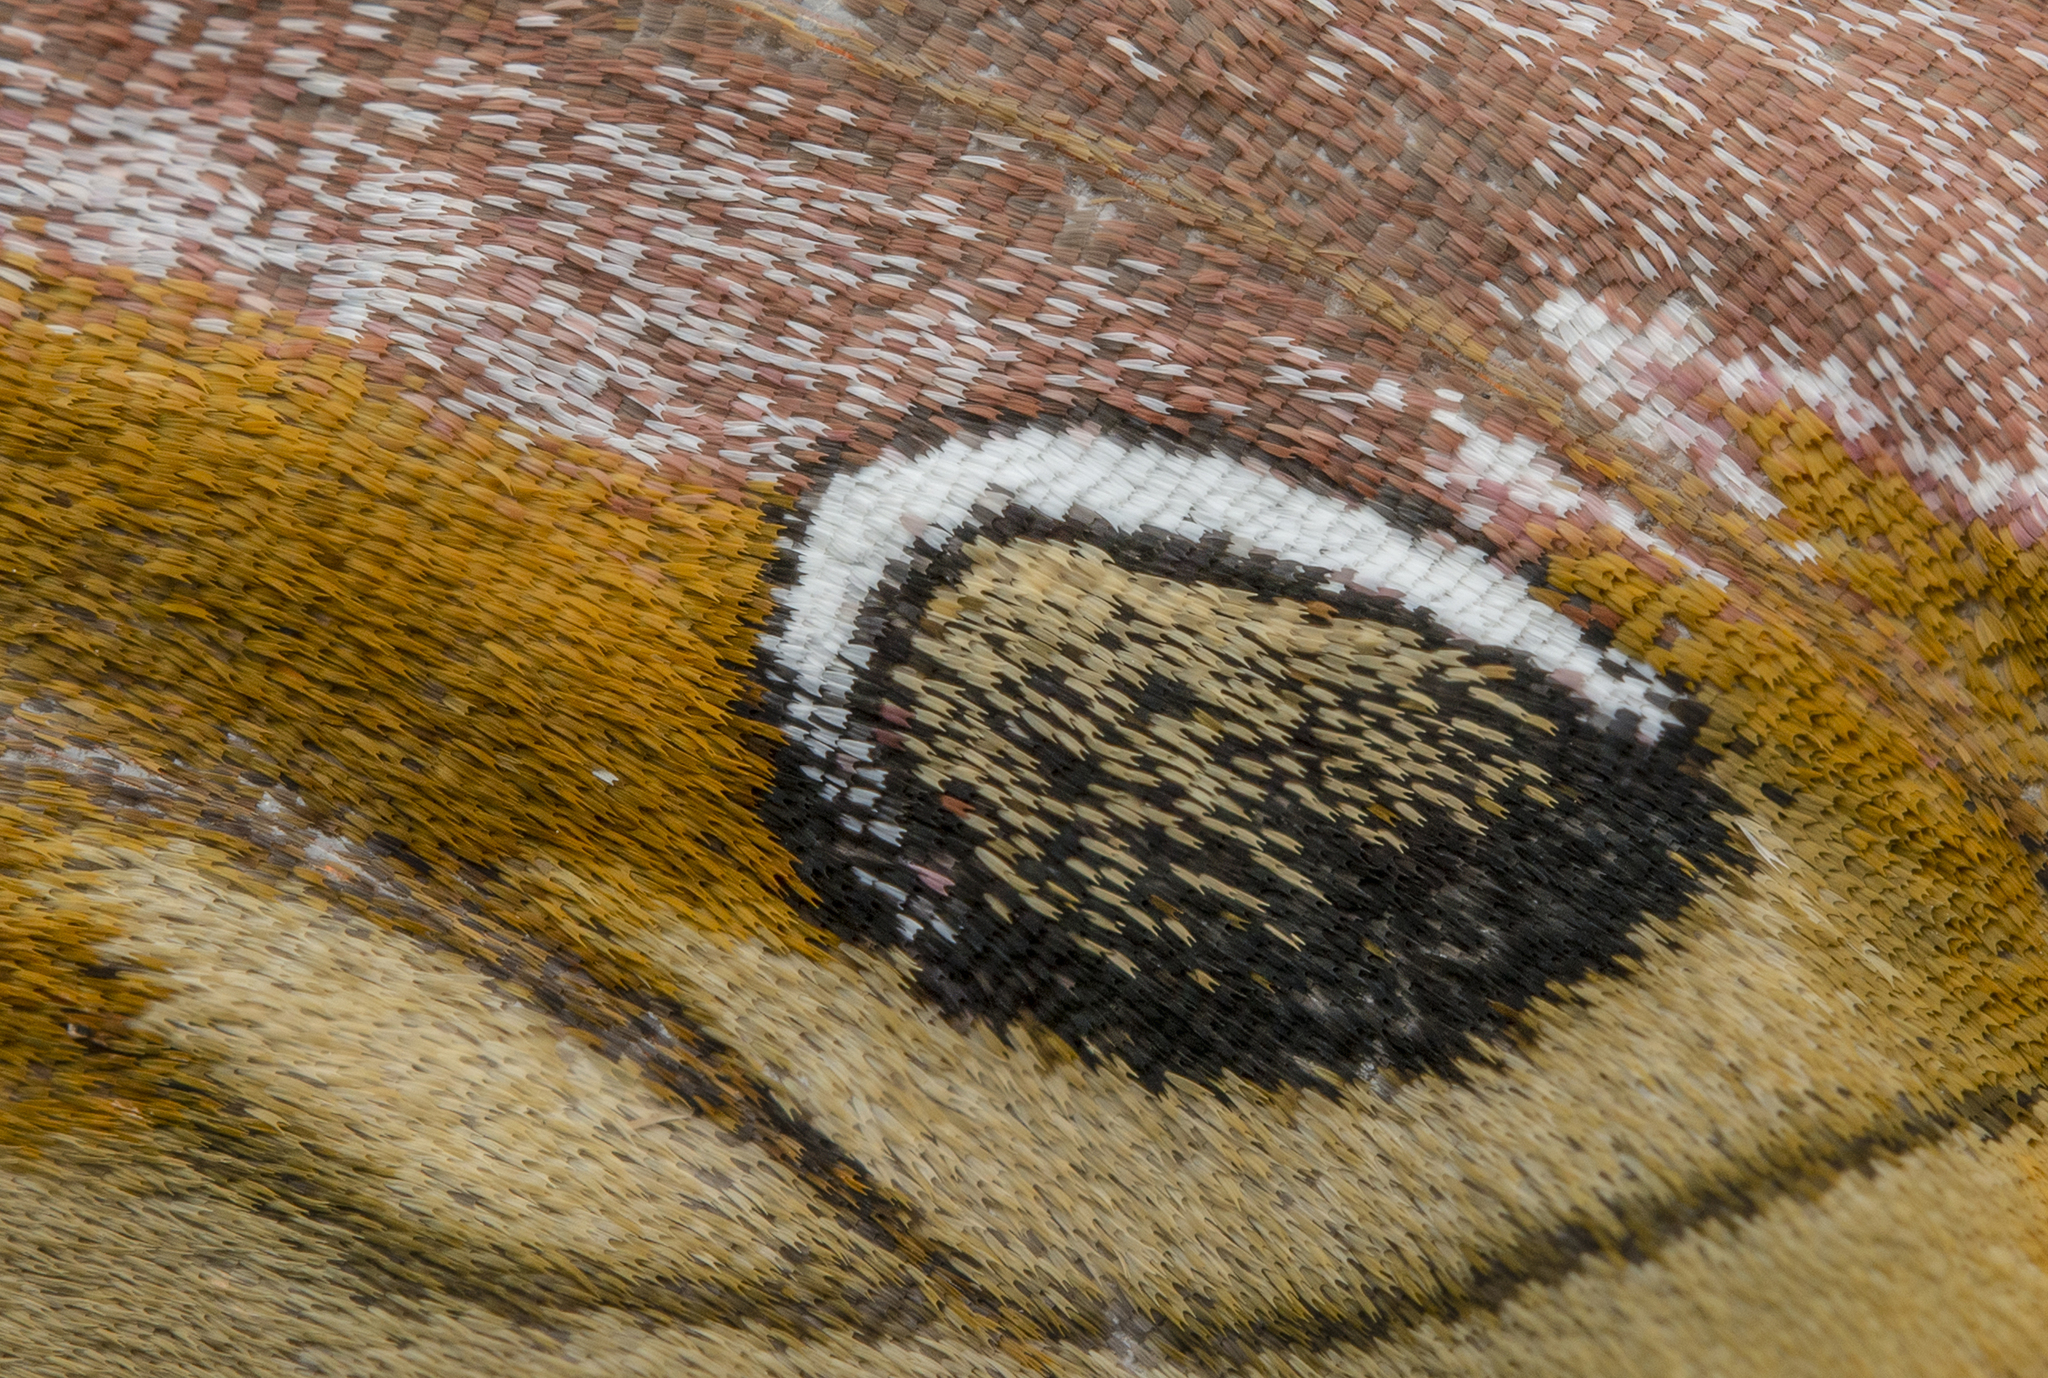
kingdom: Animalia
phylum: Arthropoda
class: Insecta
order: Lepidoptera
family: Saturniidae
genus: Samia
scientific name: Samia wangi
